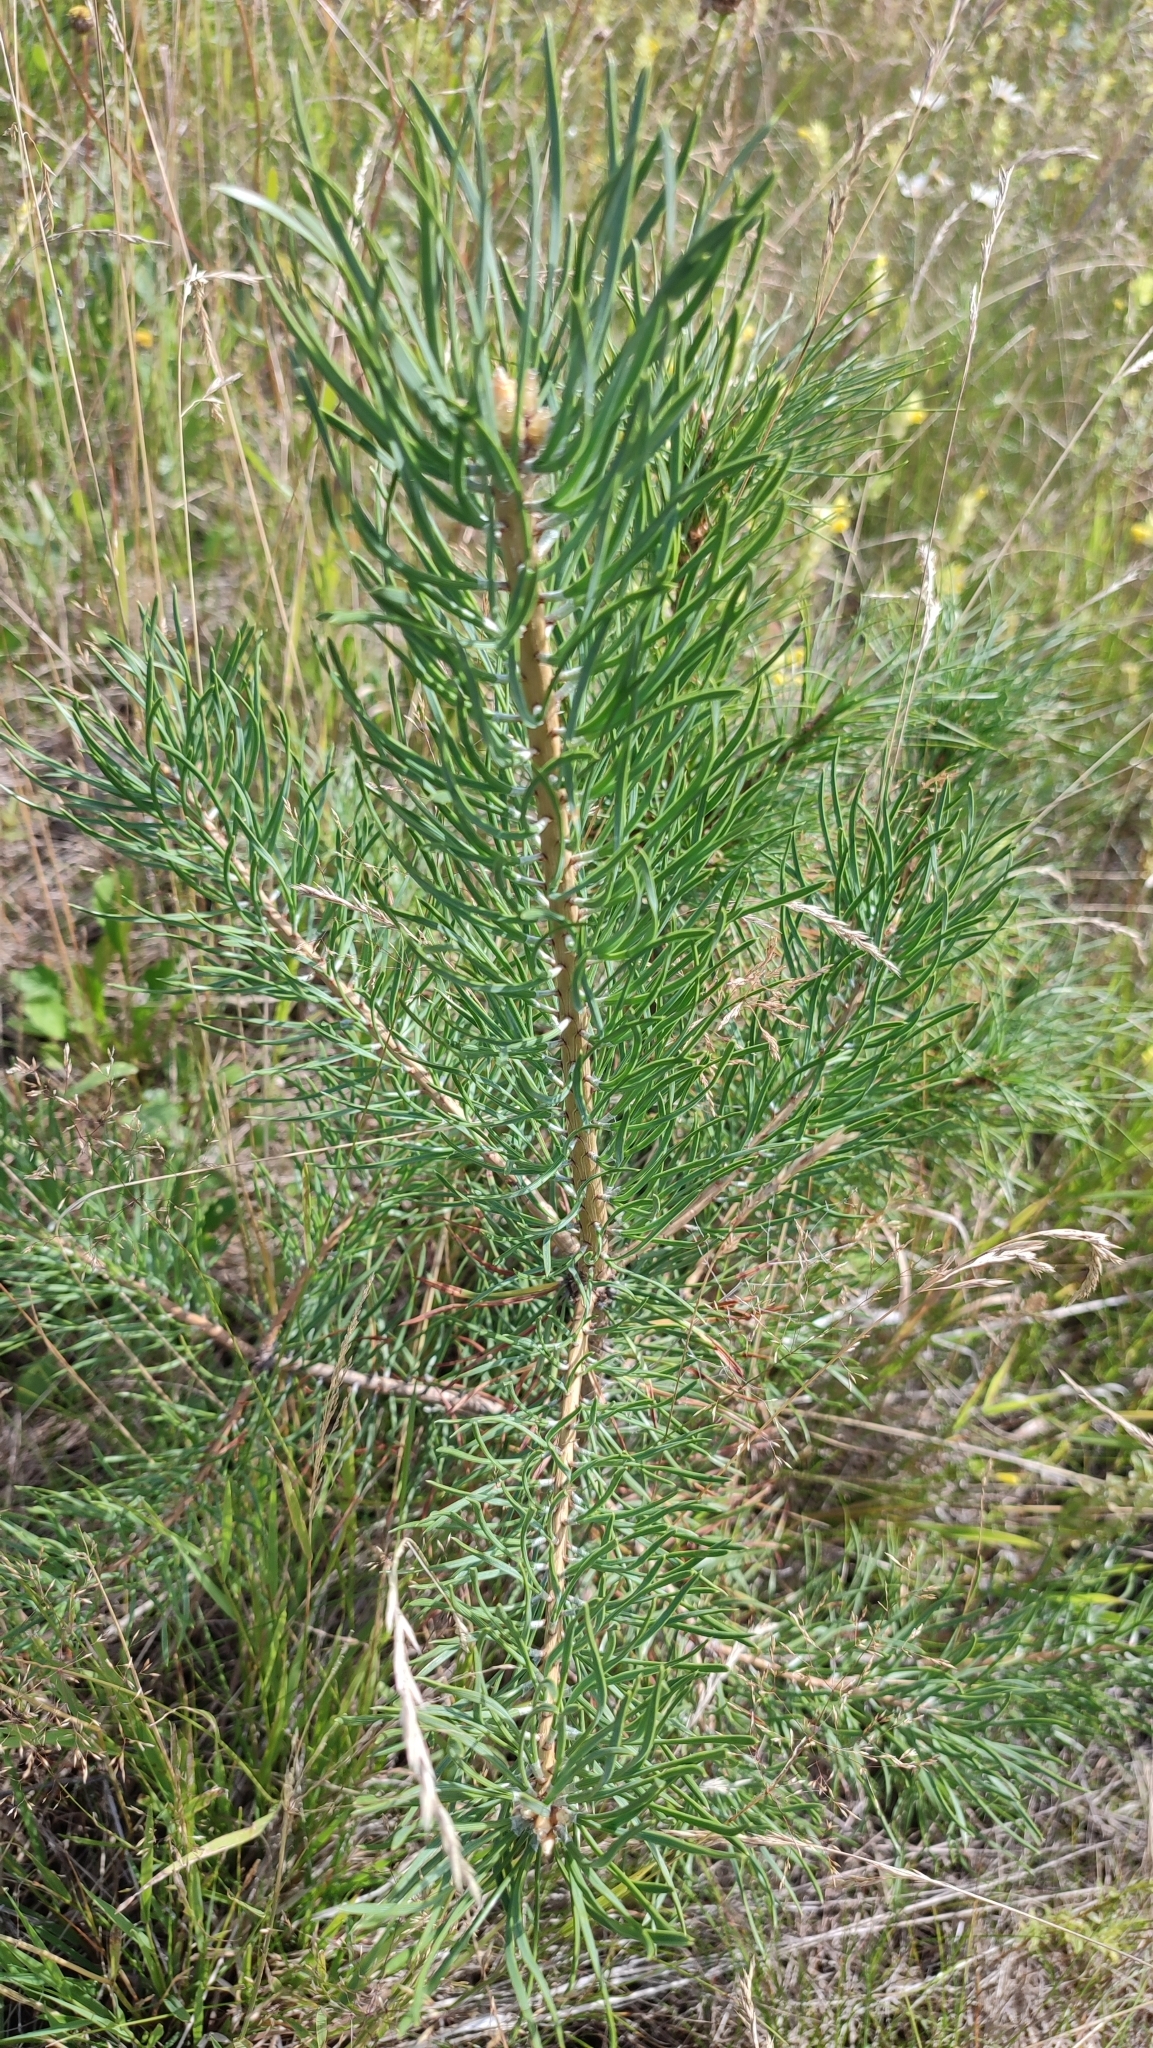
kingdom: Plantae
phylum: Tracheophyta
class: Pinopsida
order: Pinales
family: Pinaceae
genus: Pinus
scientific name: Pinus sylvestris
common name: Scots pine
